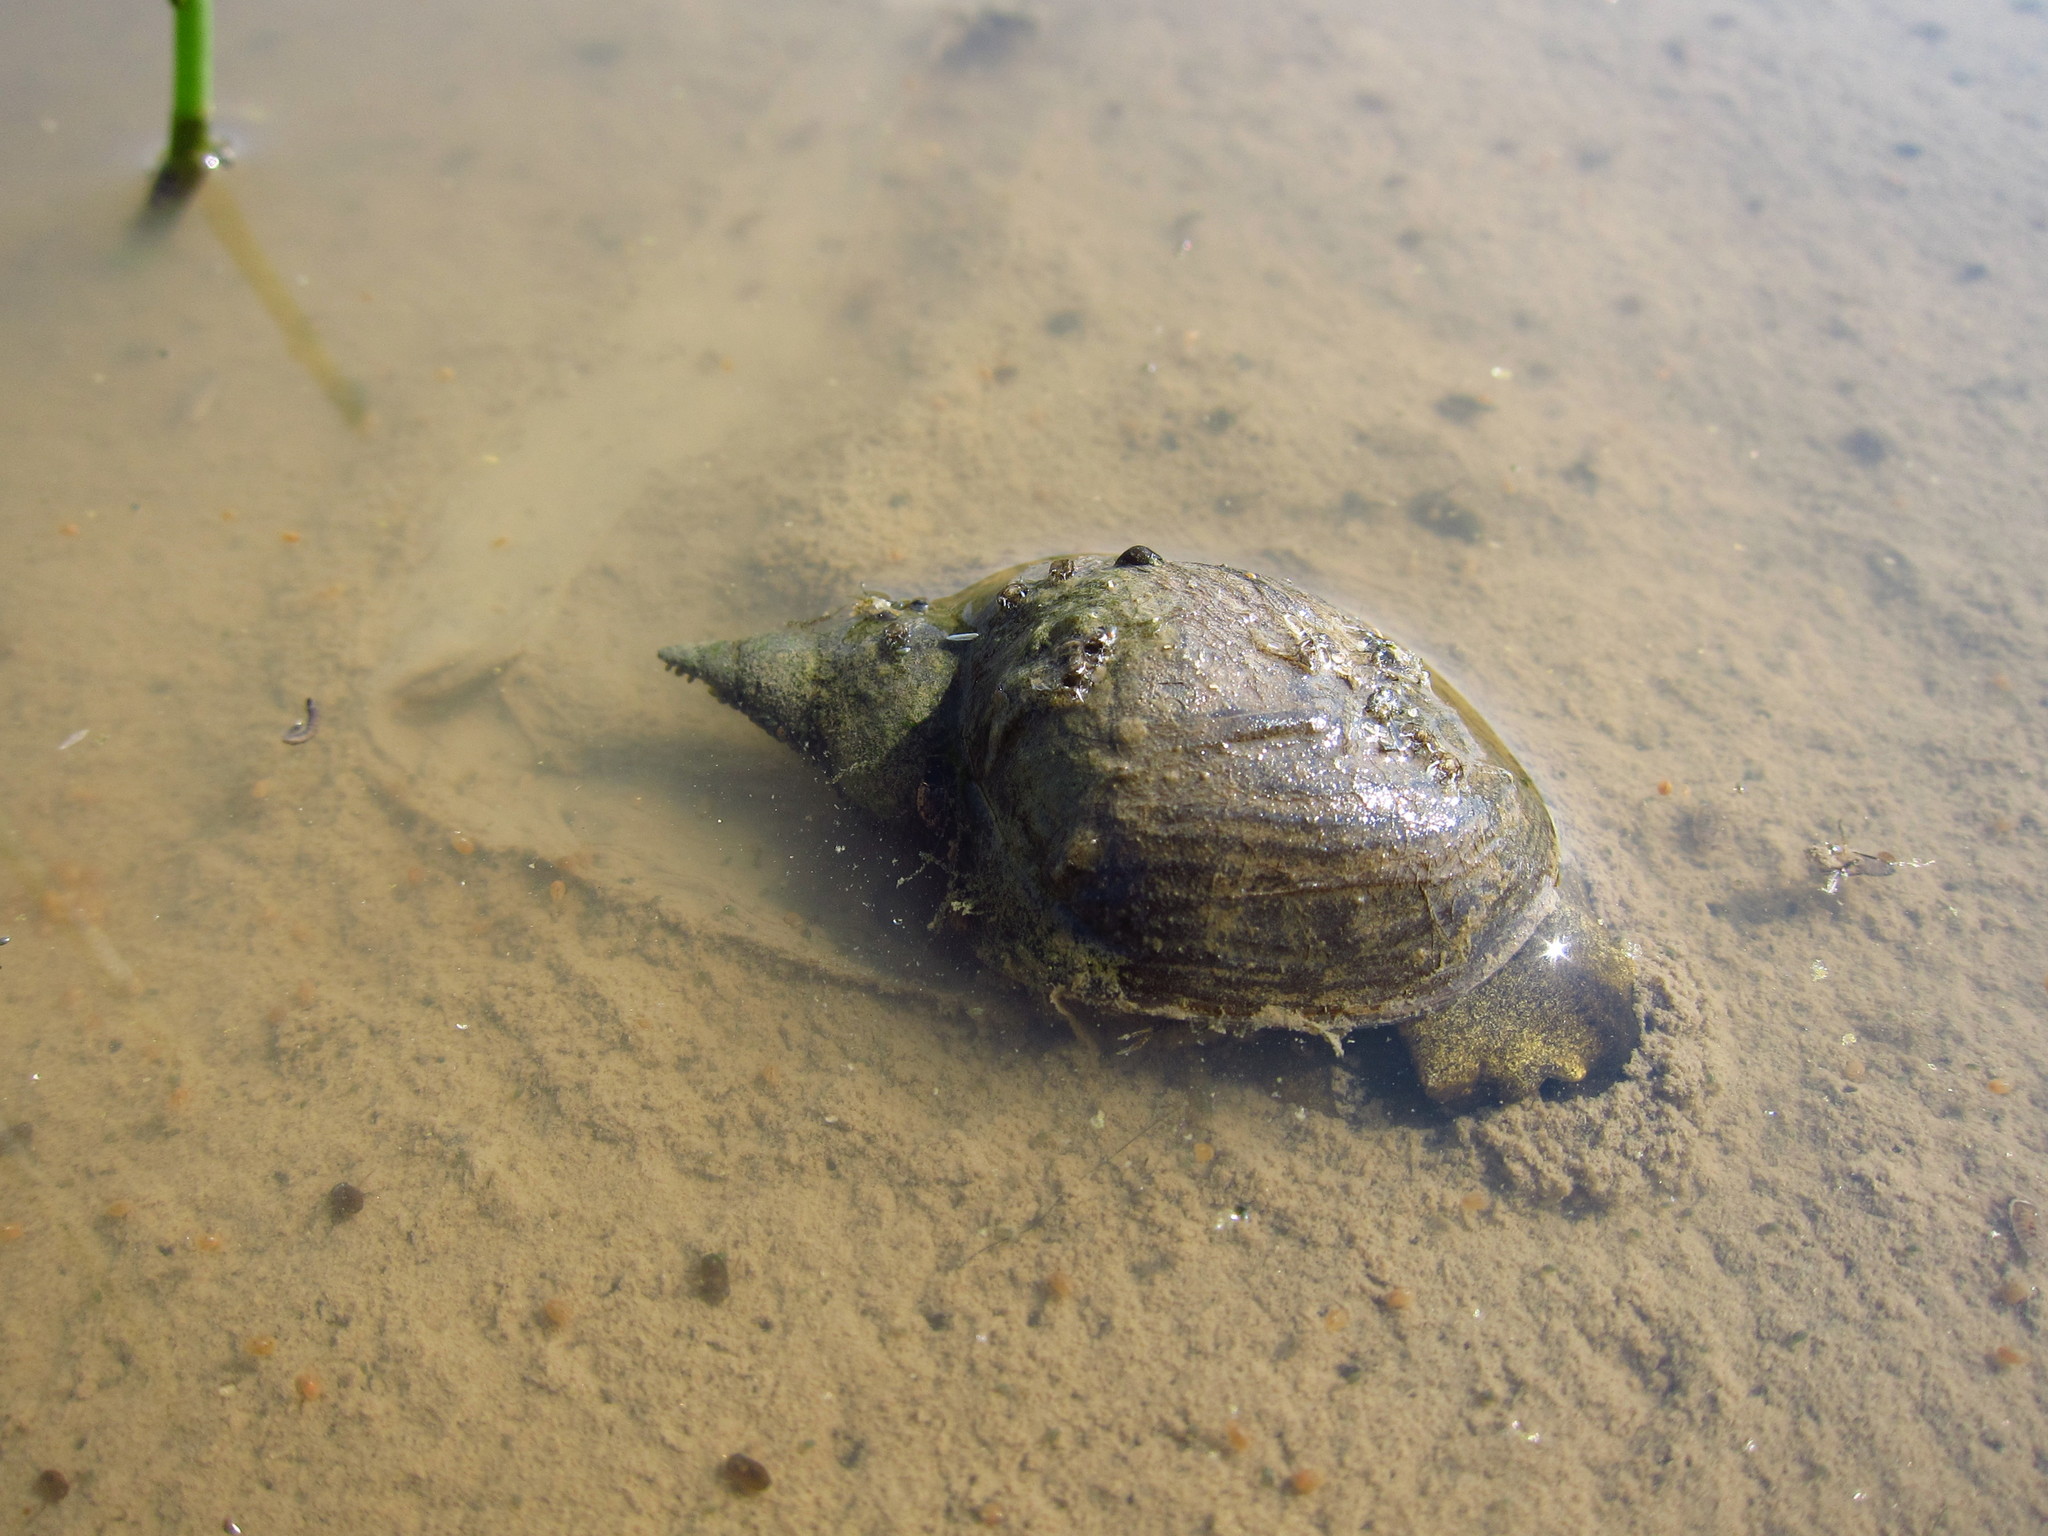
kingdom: Animalia
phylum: Mollusca
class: Gastropoda
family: Lymnaeidae
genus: Lymnaea
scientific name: Lymnaea stagnalis
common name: Great pond snail
